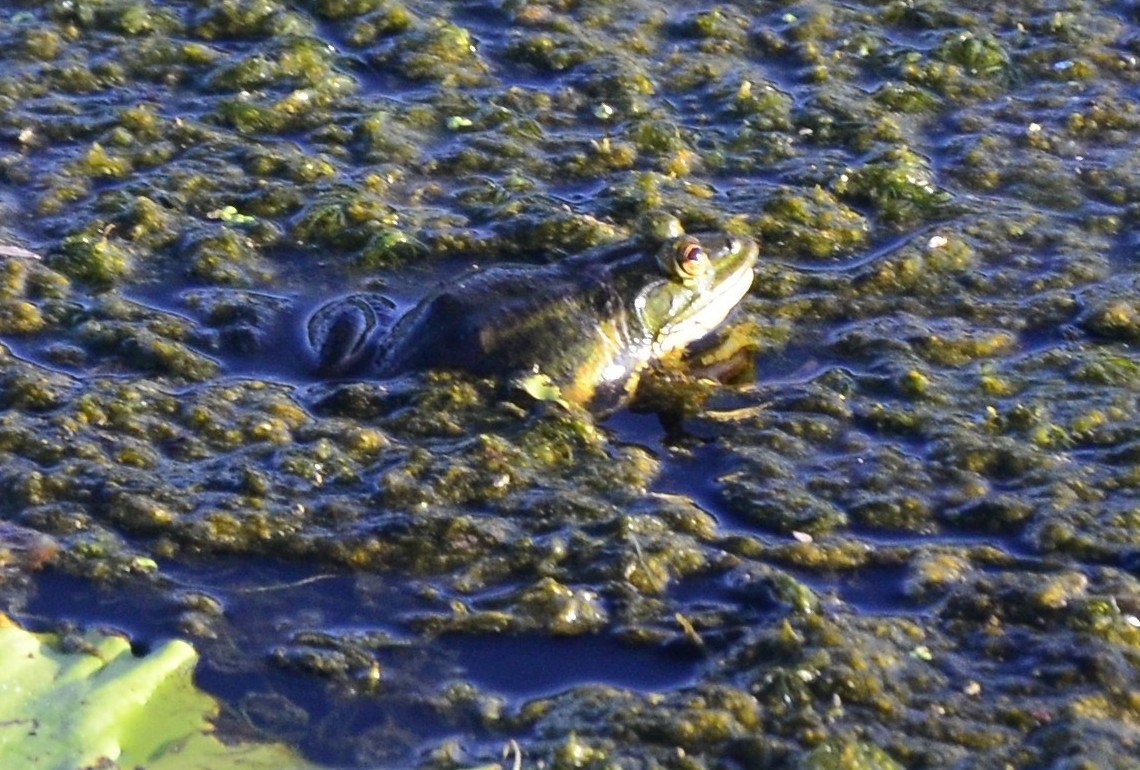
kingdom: Animalia
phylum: Chordata
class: Amphibia
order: Anura
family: Dicroglossidae
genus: Euphlyctis
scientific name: Euphlyctis karaavali
